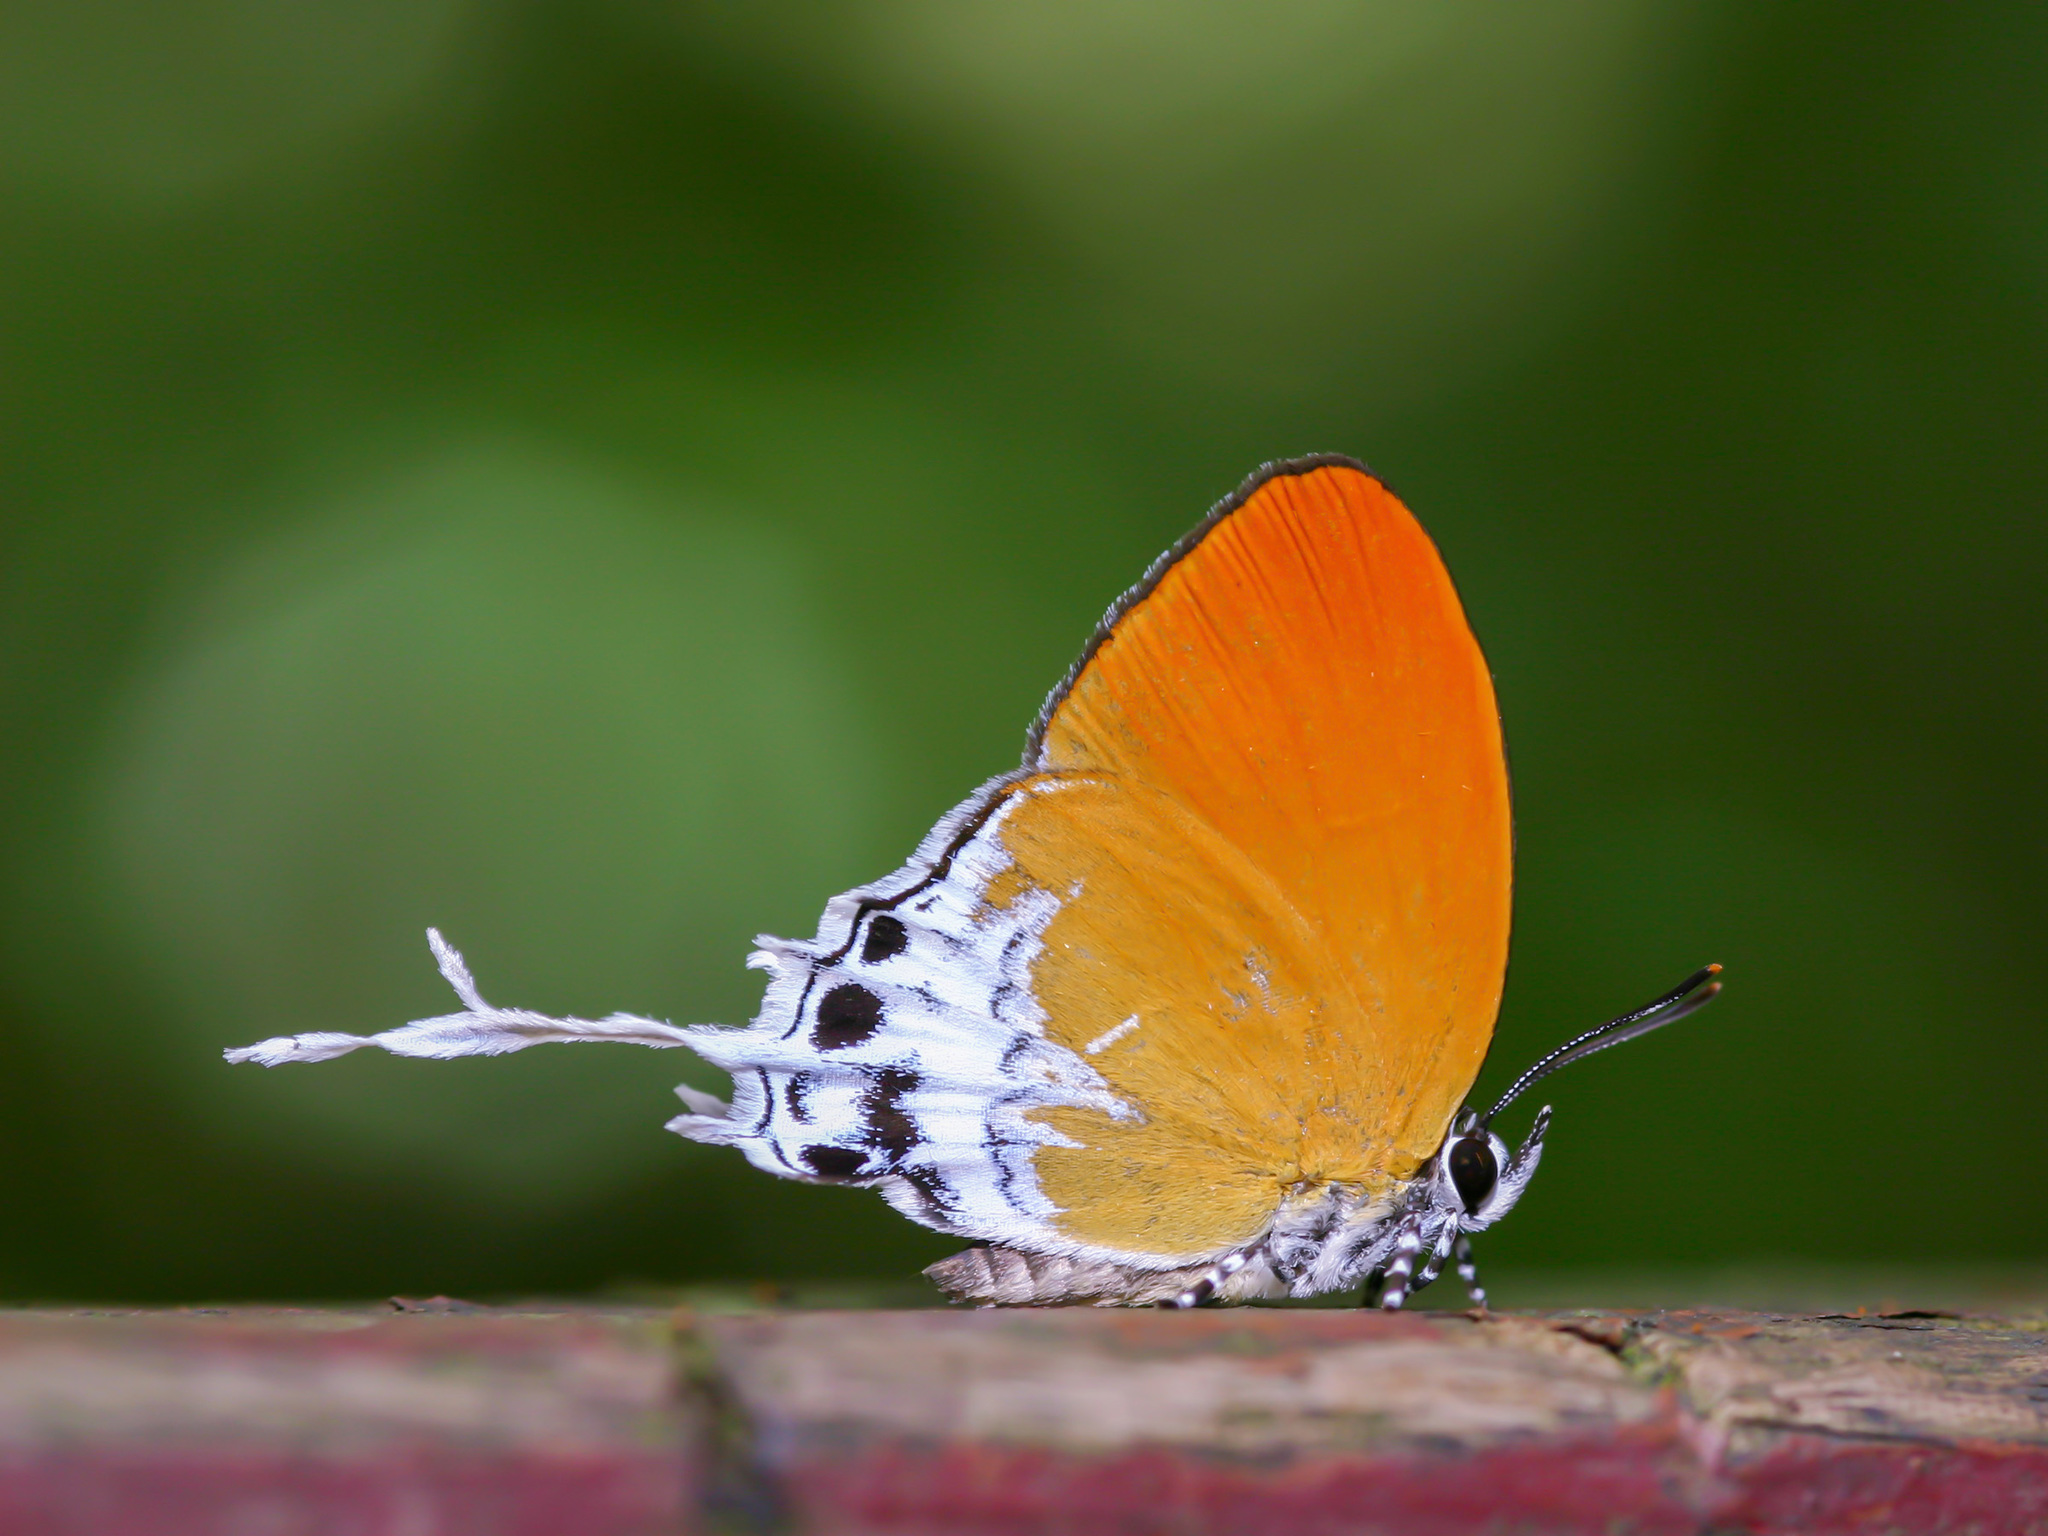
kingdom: Animalia
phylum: Arthropoda
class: Insecta
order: Lepidoptera
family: Lycaenidae
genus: Eooxylides
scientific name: Eooxylides tharis
